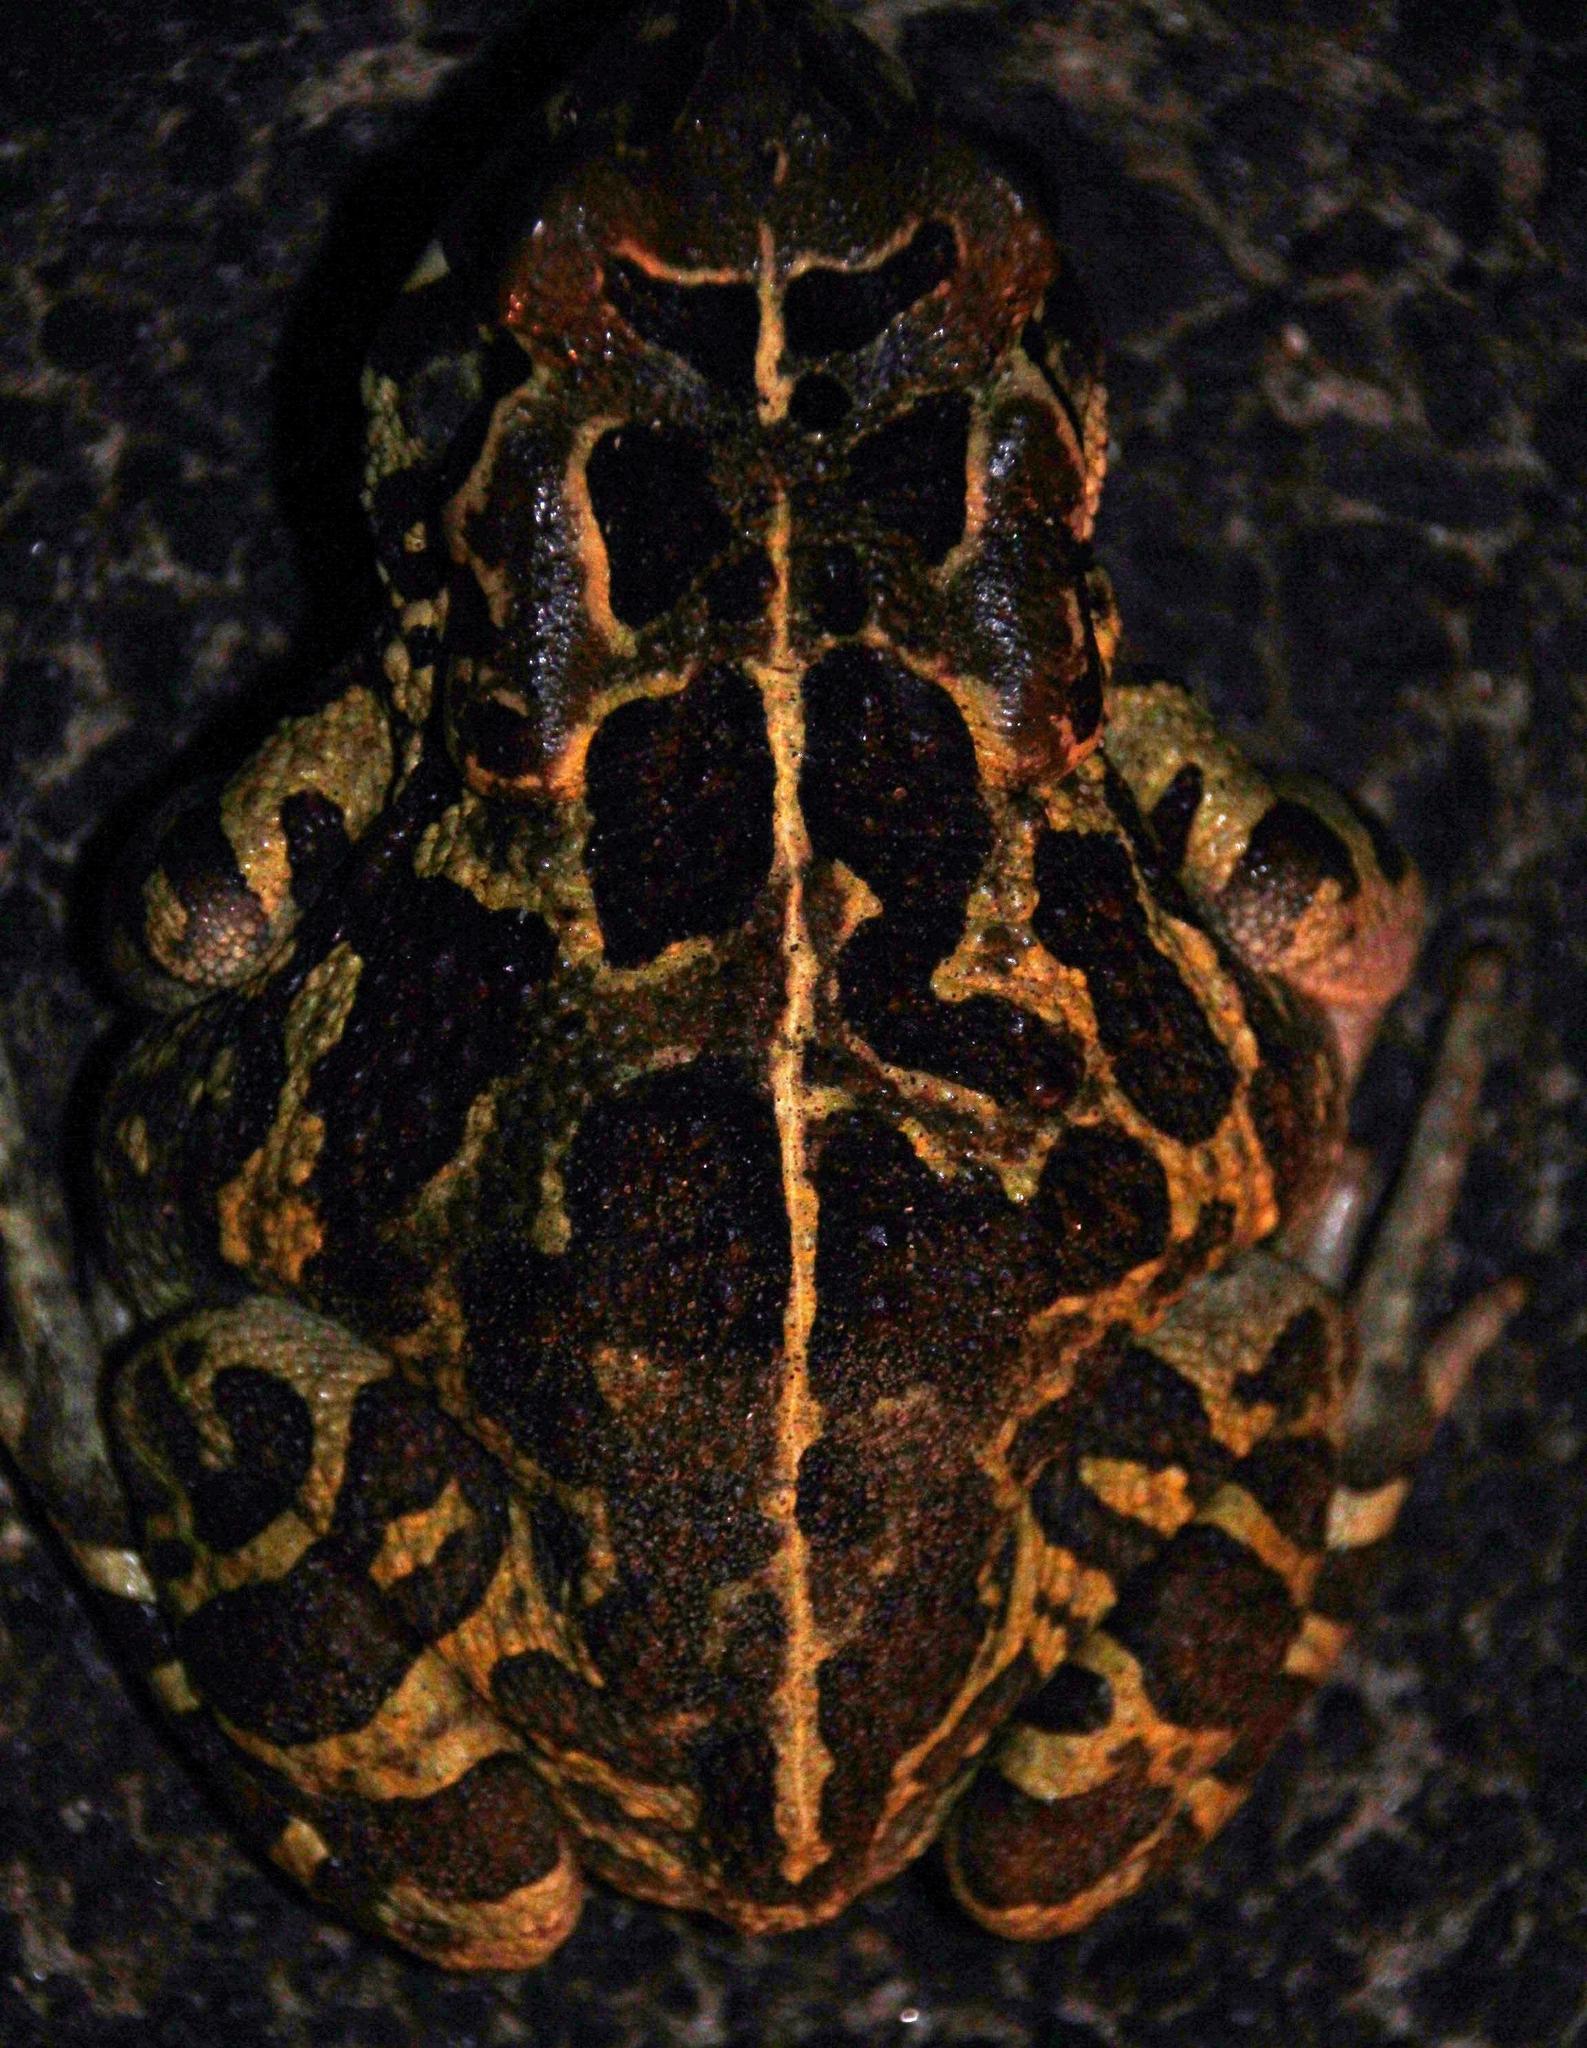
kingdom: Animalia
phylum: Chordata
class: Amphibia
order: Anura
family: Bufonidae
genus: Sclerophrys
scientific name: Sclerophrys pantherina
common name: Panther toad
